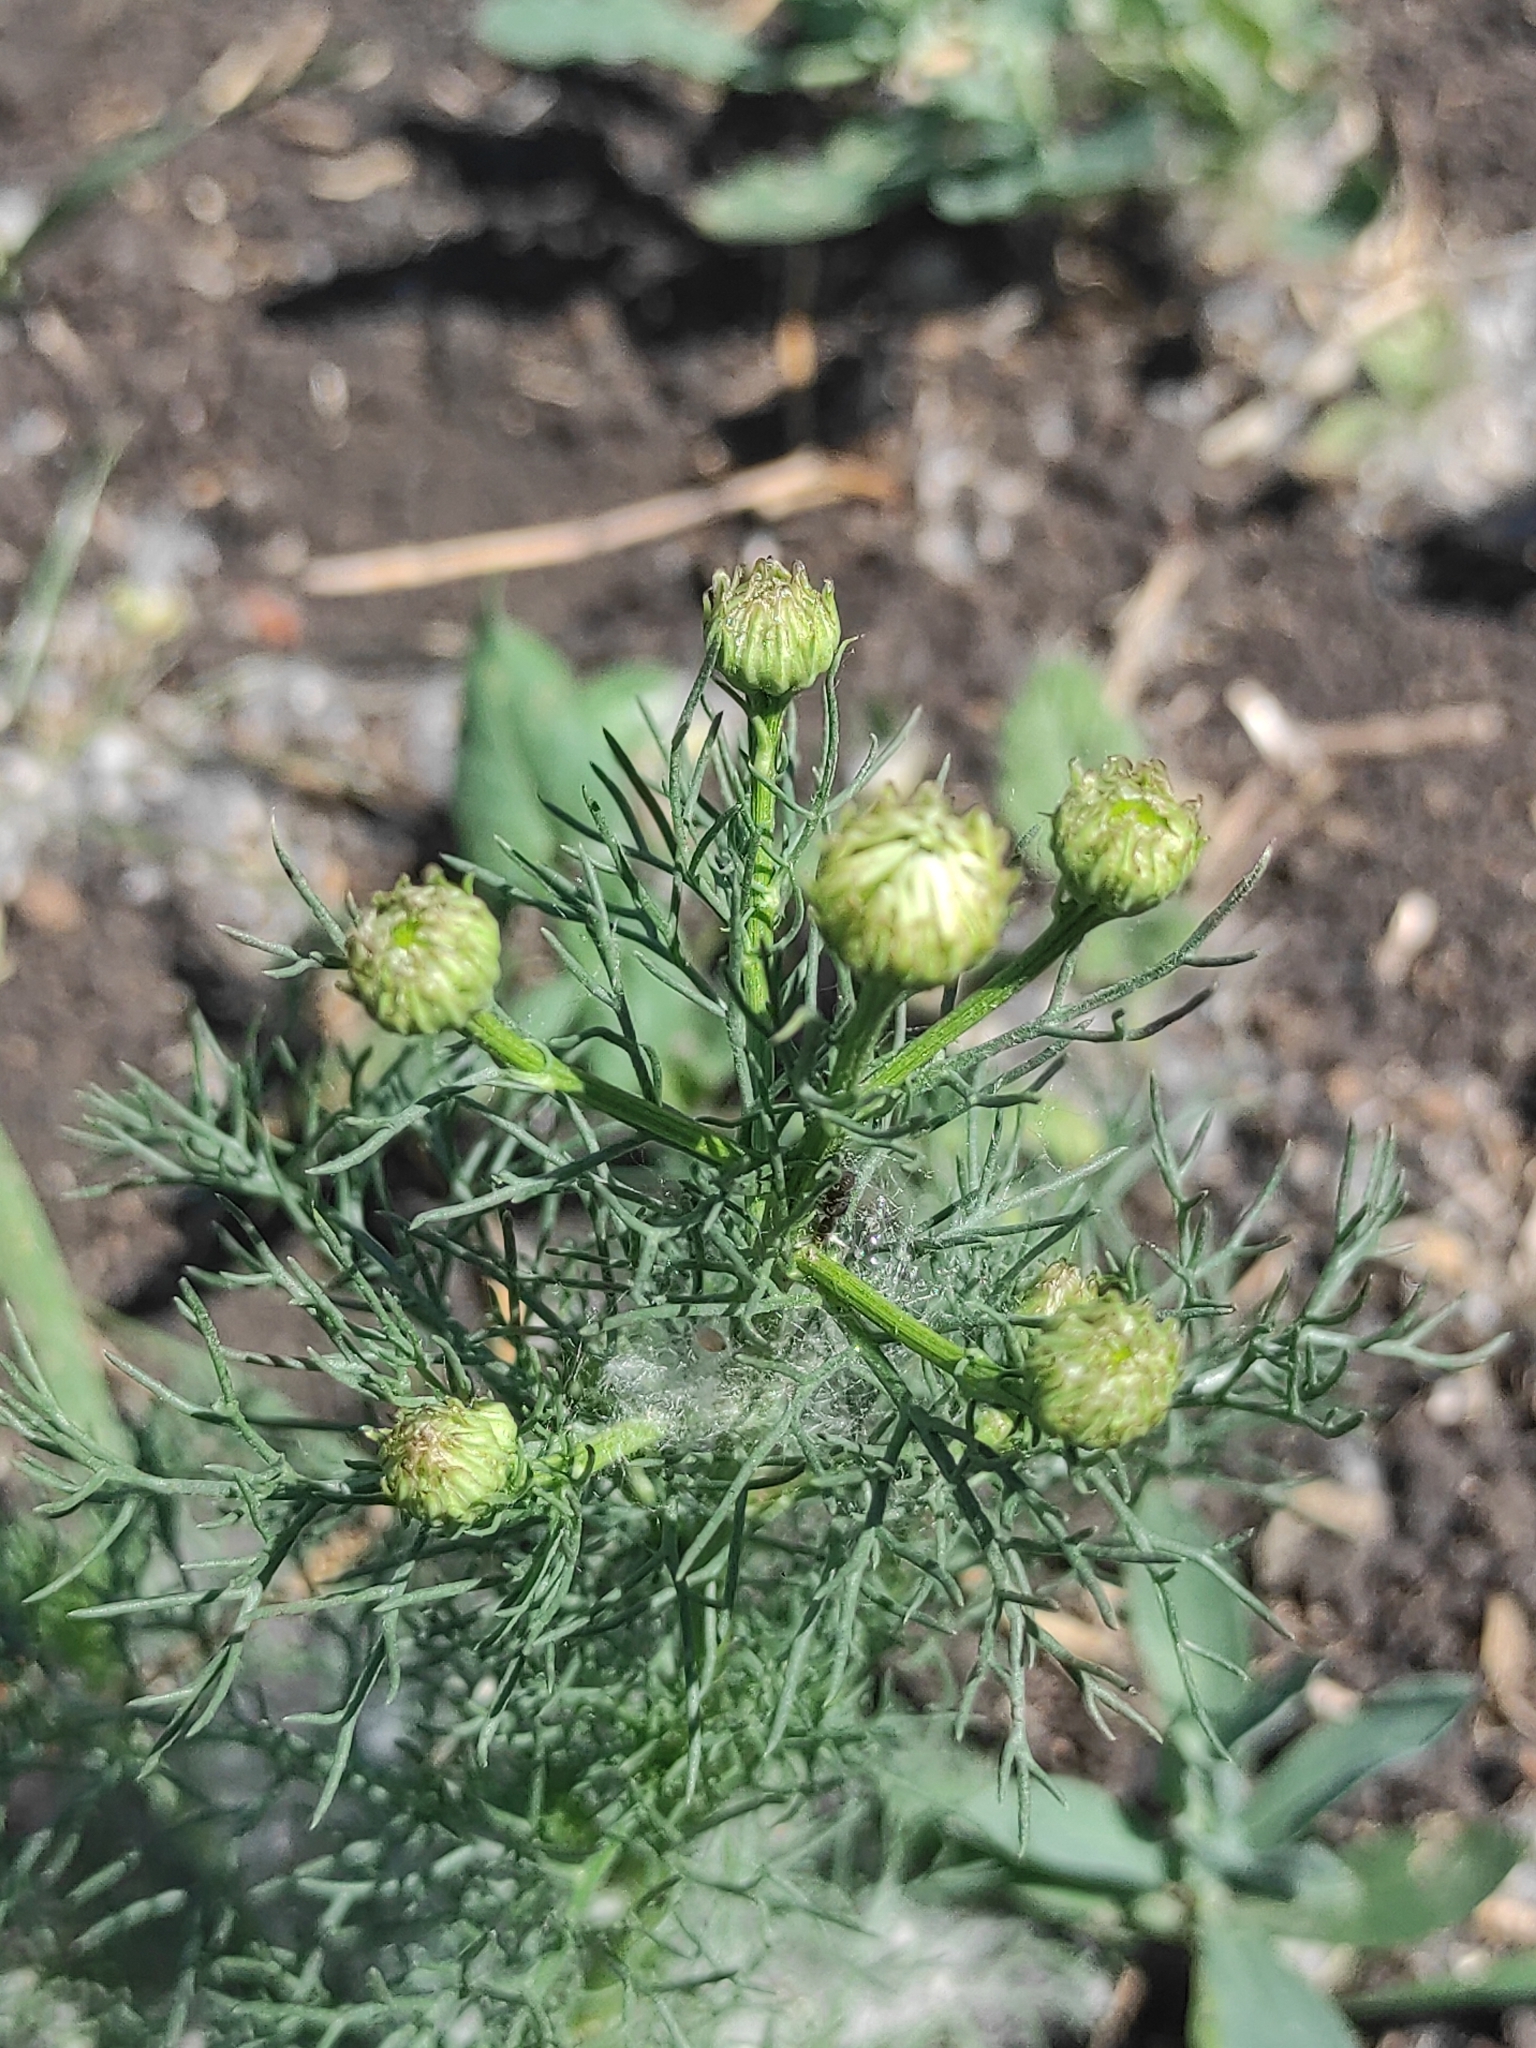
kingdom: Plantae
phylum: Tracheophyta
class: Magnoliopsida
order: Asterales
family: Asteraceae
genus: Tripleurospermum
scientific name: Tripleurospermum inodorum
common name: Scentless mayweed
